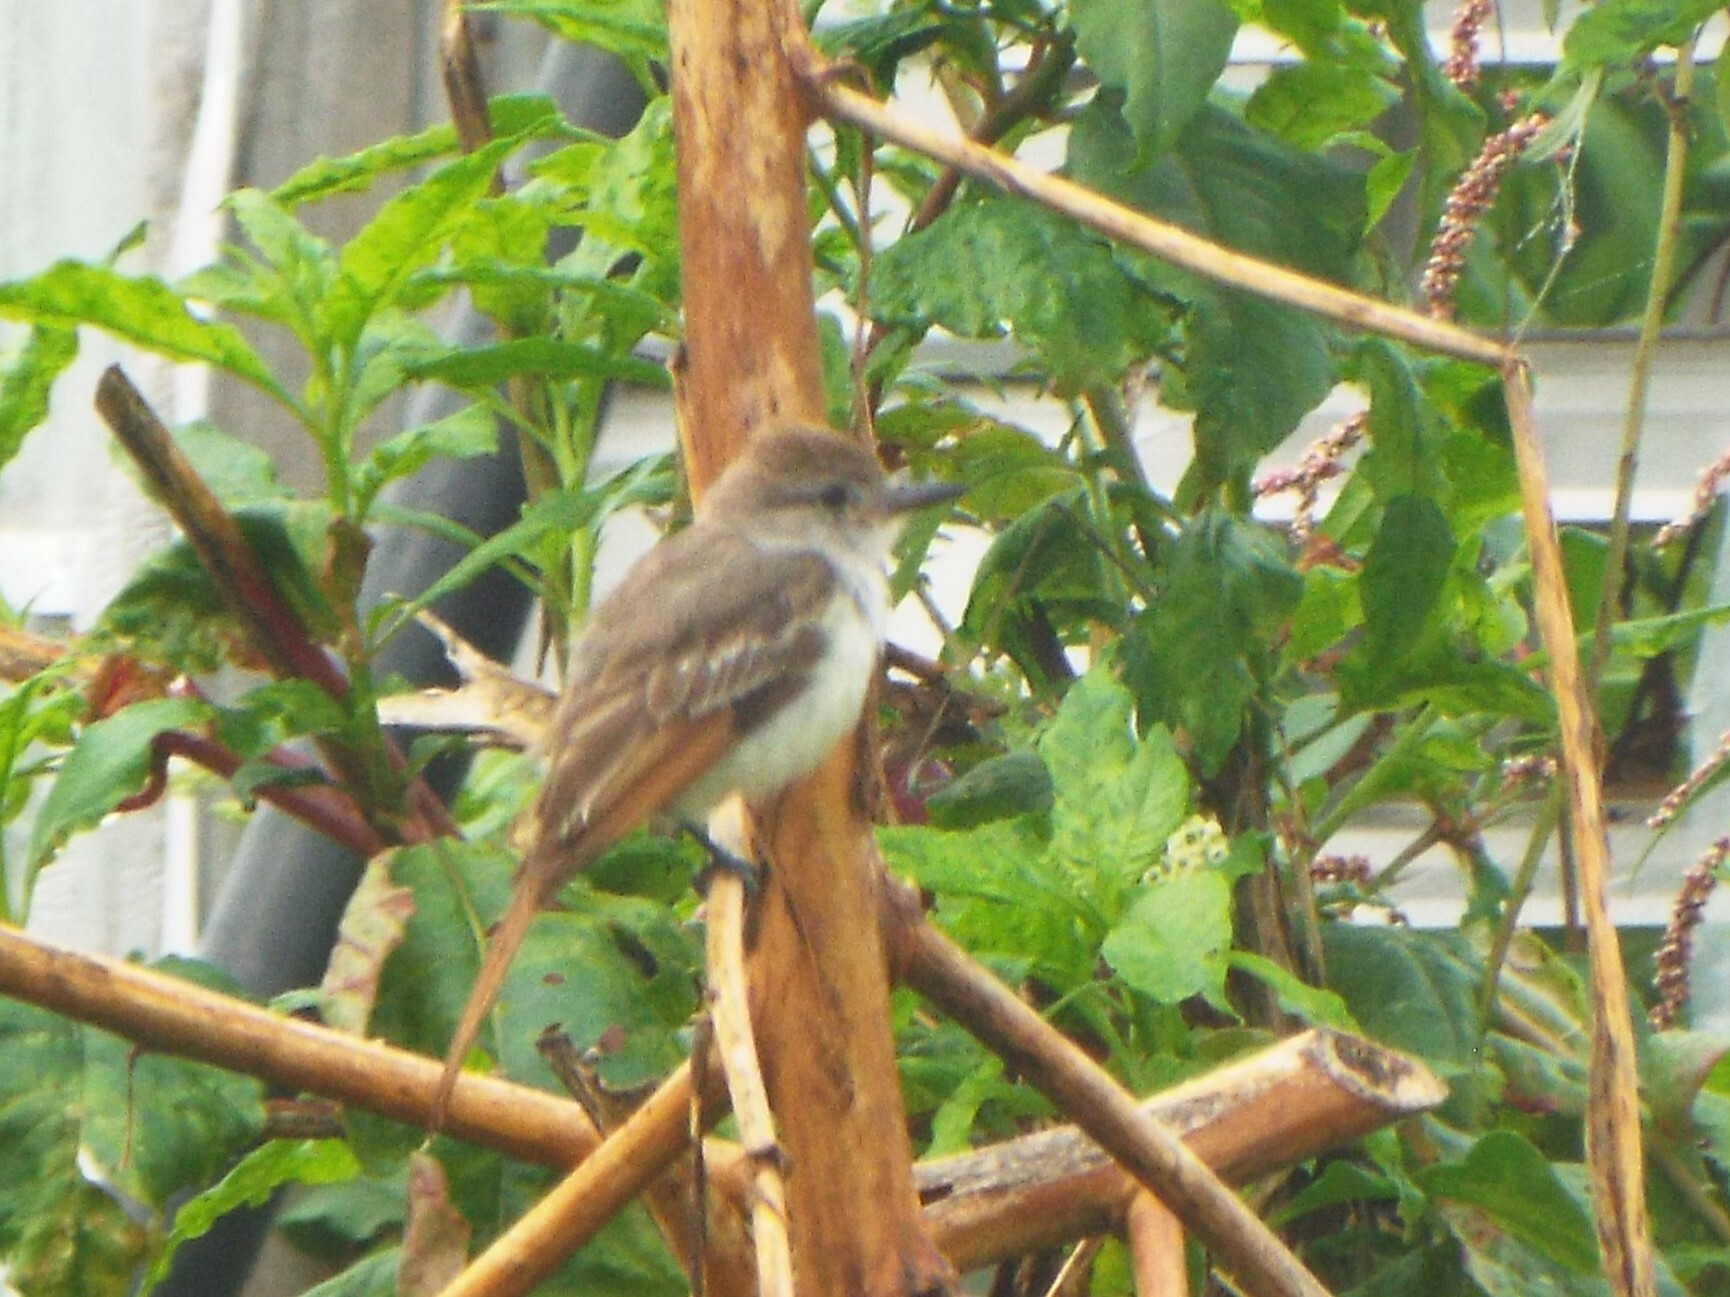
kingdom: Animalia
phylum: Chordata
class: Aves
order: Passeriformes
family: Tyrannidae
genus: Myiarchus
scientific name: Myiarchus cinerascens
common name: Ash-throated flycatcher
